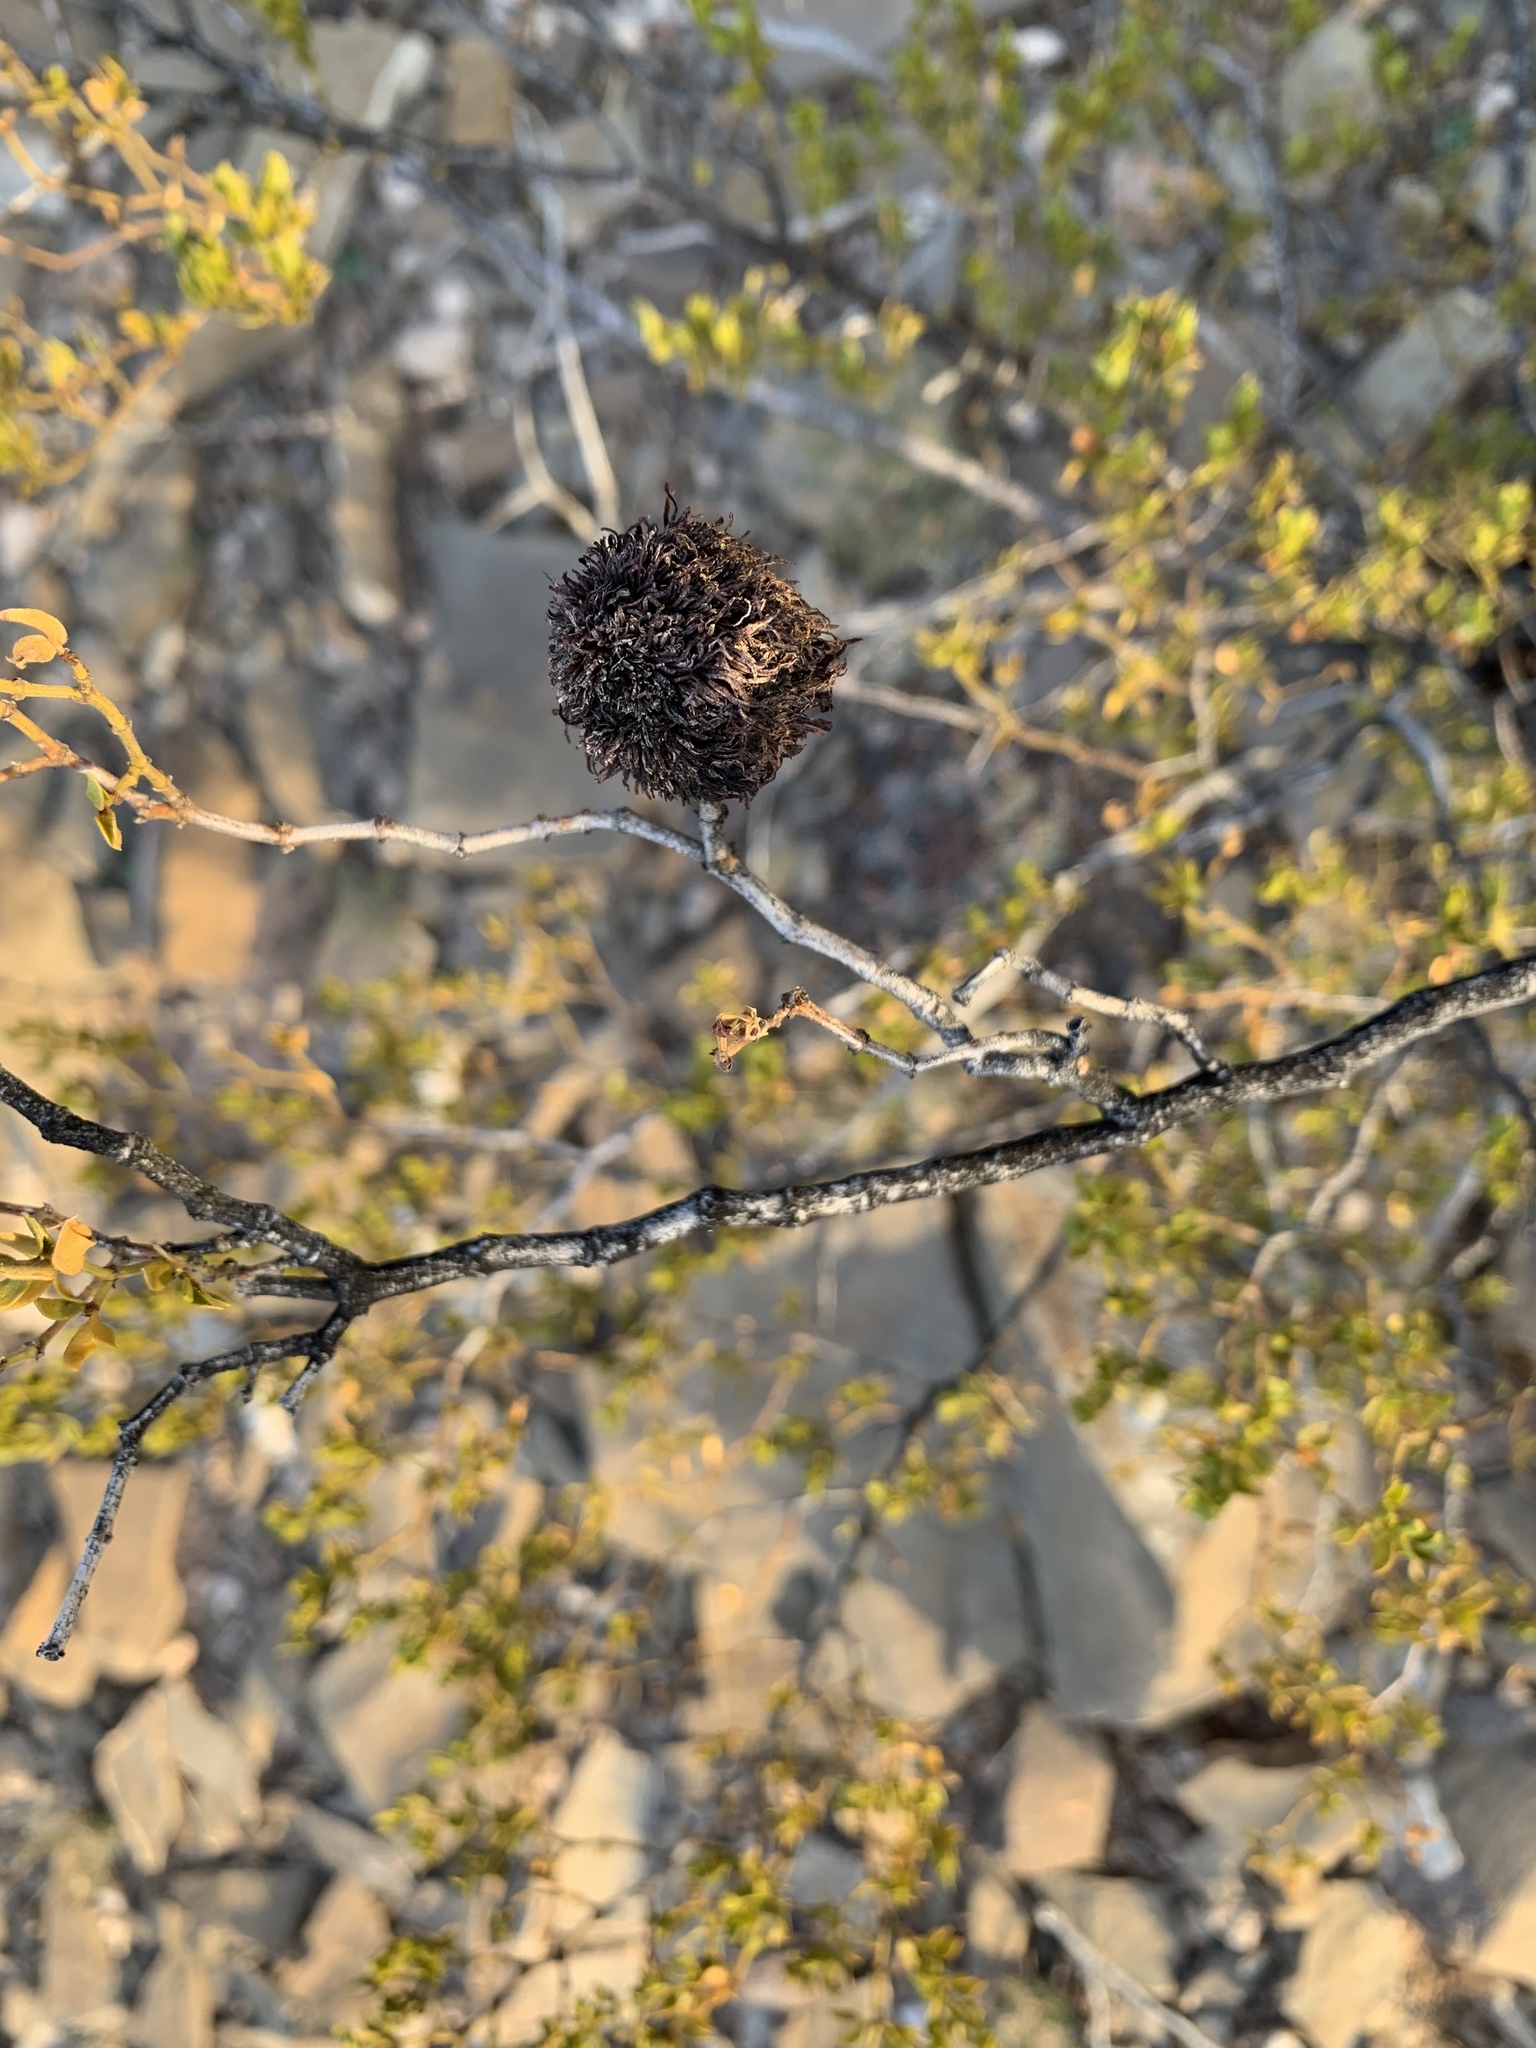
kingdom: Animalia
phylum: Arthropoda
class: Insecta
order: Diptera
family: Cecidomyiidae
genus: Asphondylia
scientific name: Asphondylia auripila
